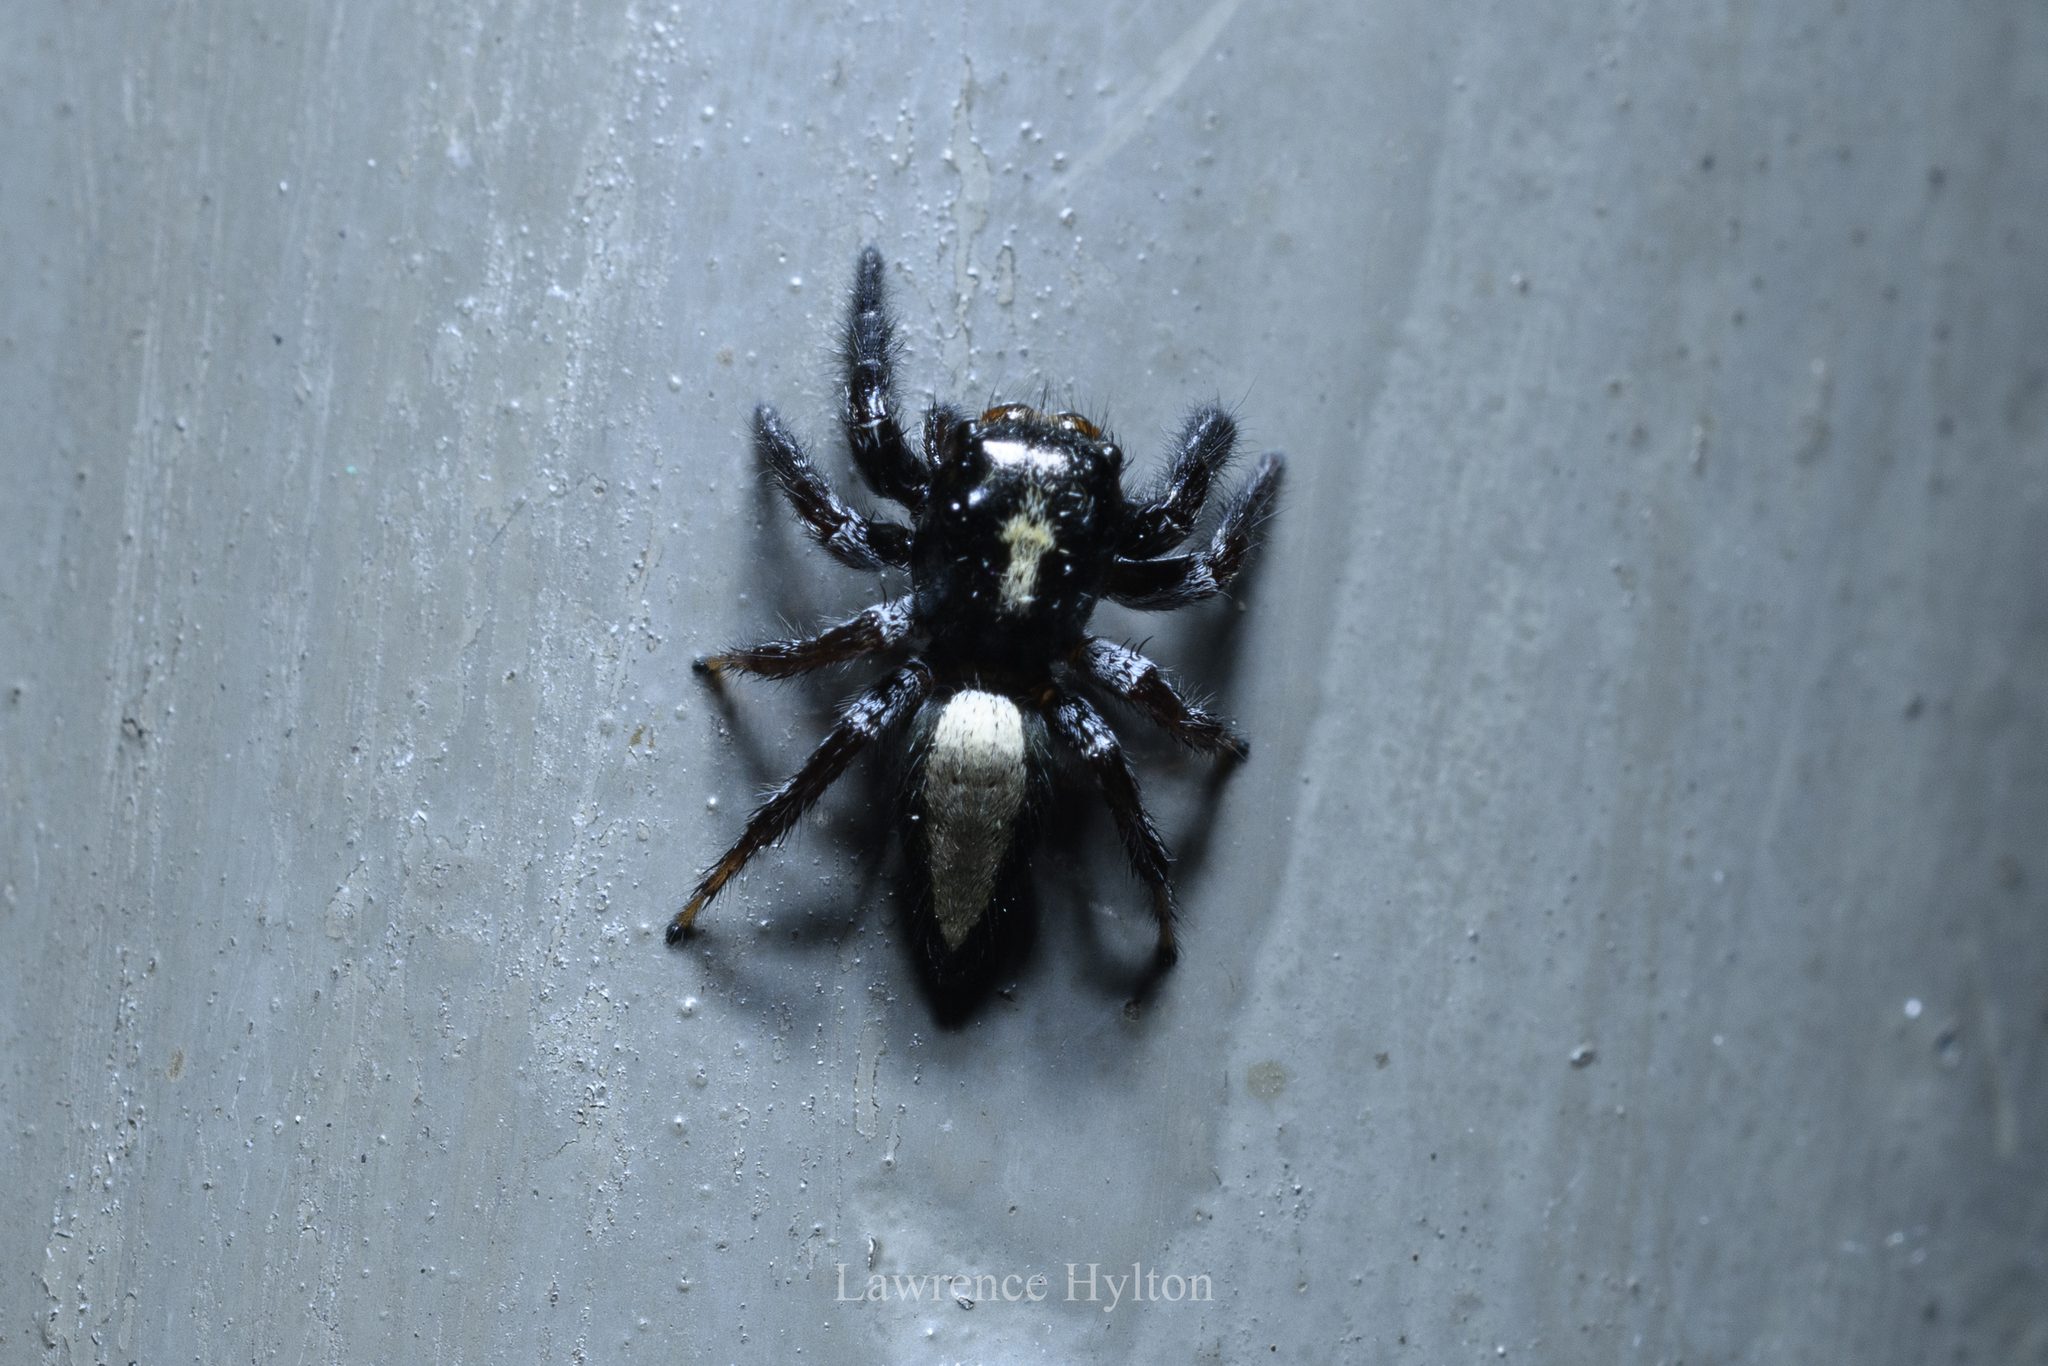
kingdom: Animalia
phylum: Arthropoda
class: Arachnida
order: Araneae
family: Salticidae
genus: Ptocasius
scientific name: Ptocasius strupifer
